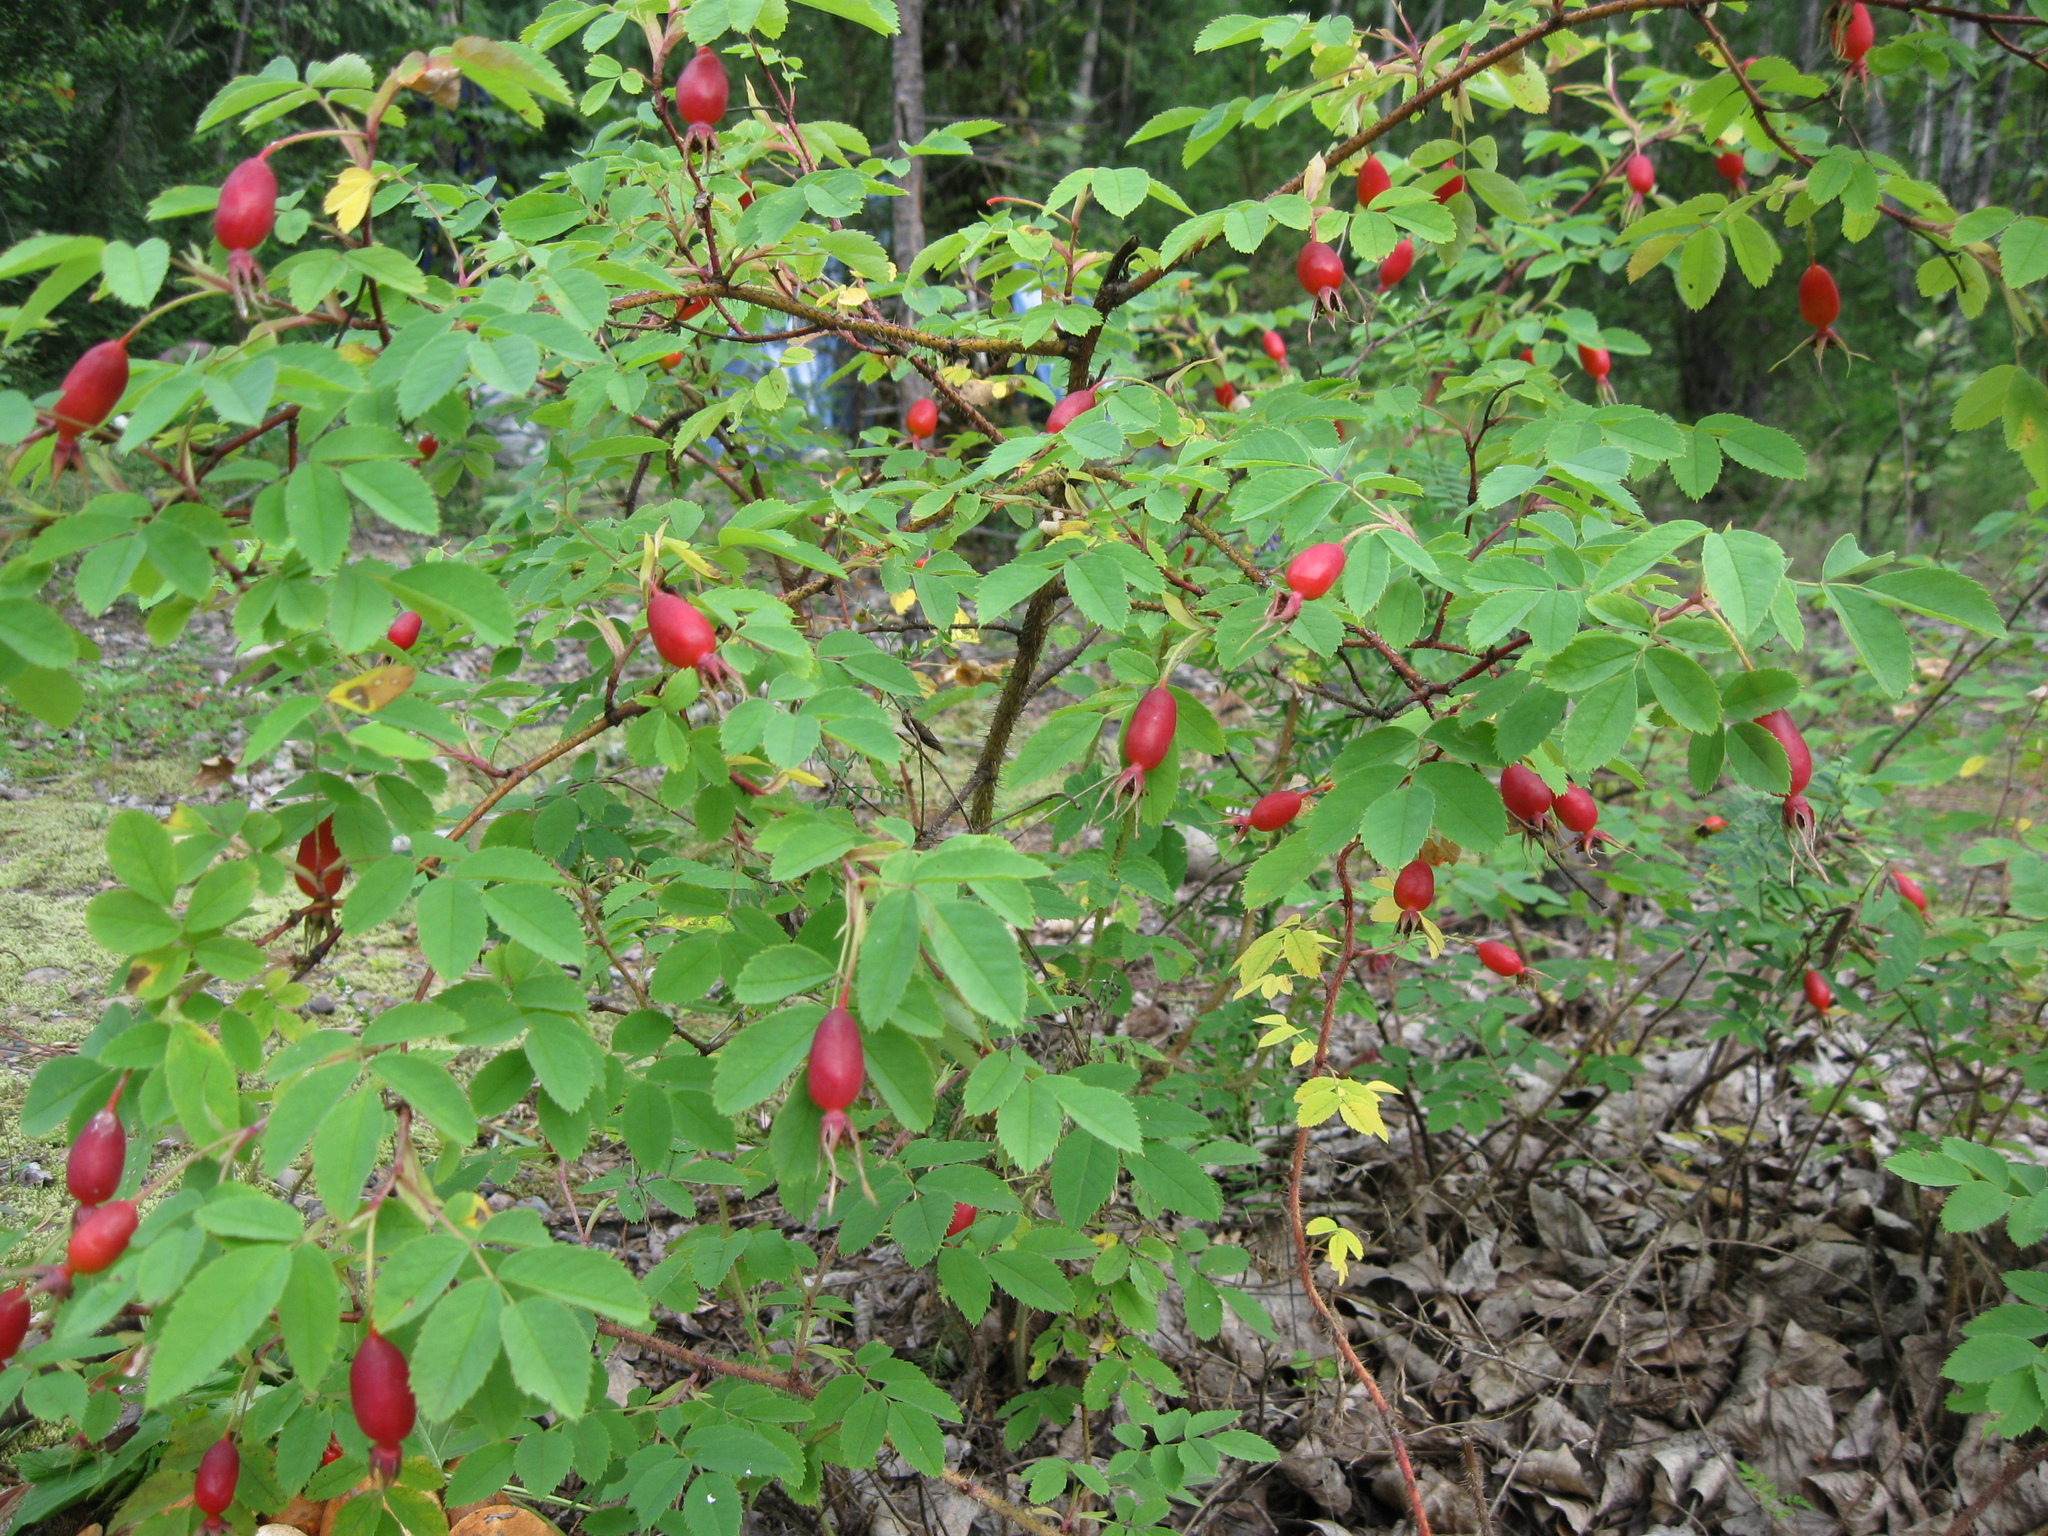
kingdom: Plantae
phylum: Tracheophyta
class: Magnoliopsida
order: Rosales
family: Rosaceae
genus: Rosa
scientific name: Rosa acicularis
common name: Prickly rose
